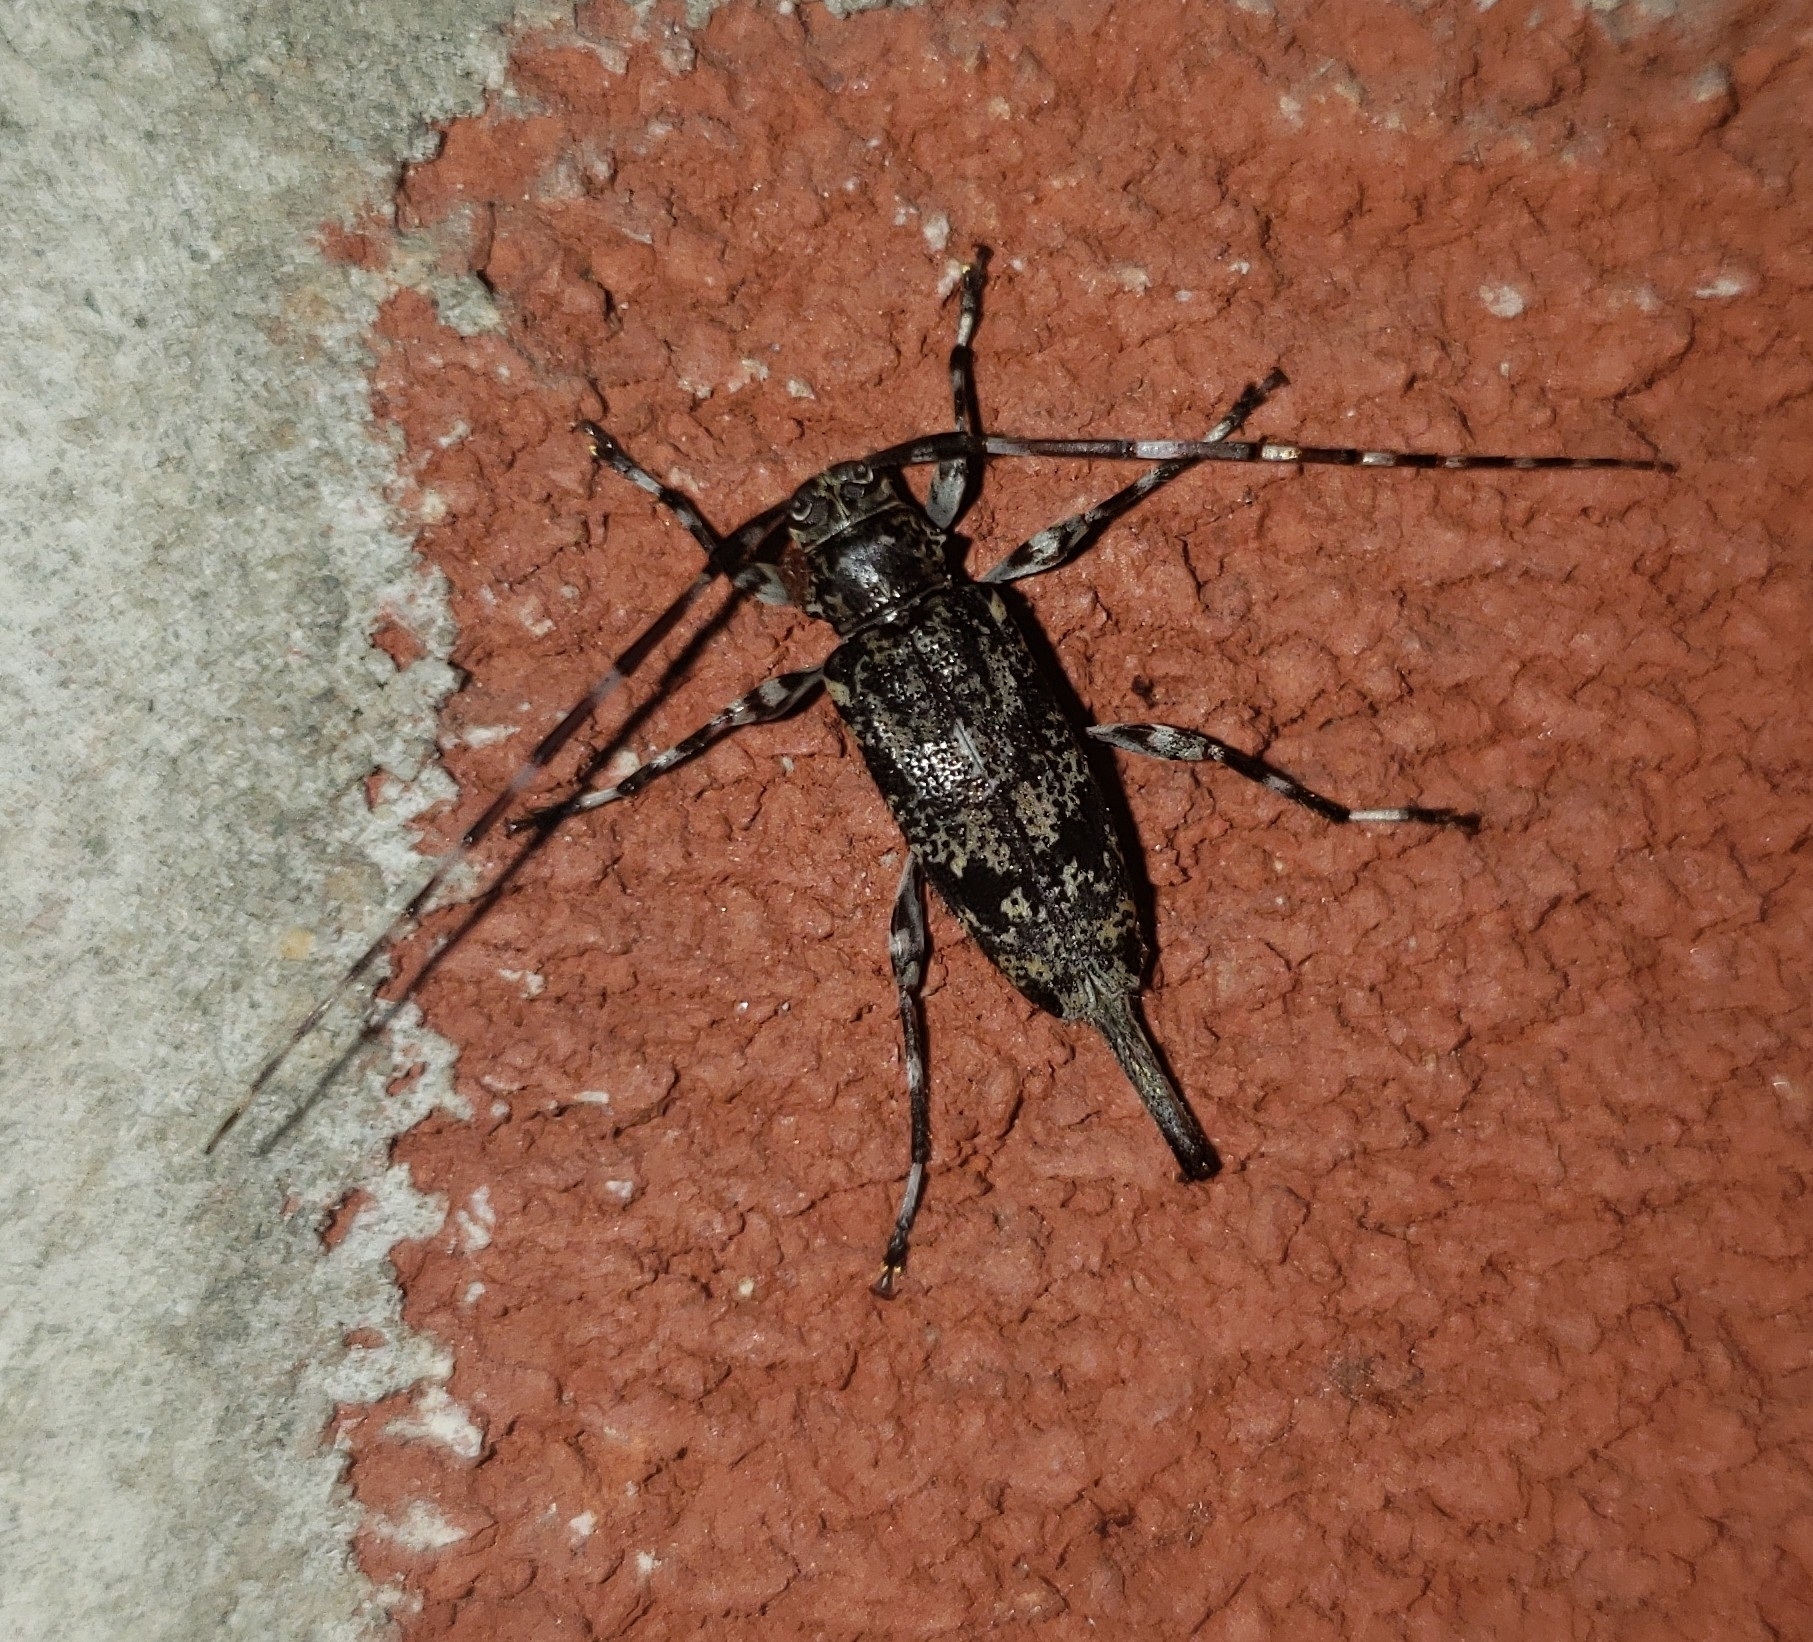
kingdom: Animalia
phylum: Arthropoda
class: Insecta
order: Coleoptera
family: Cerambycidae
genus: Graphisurus
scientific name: Graphisurus fasciatus
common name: Banded graphisurus
